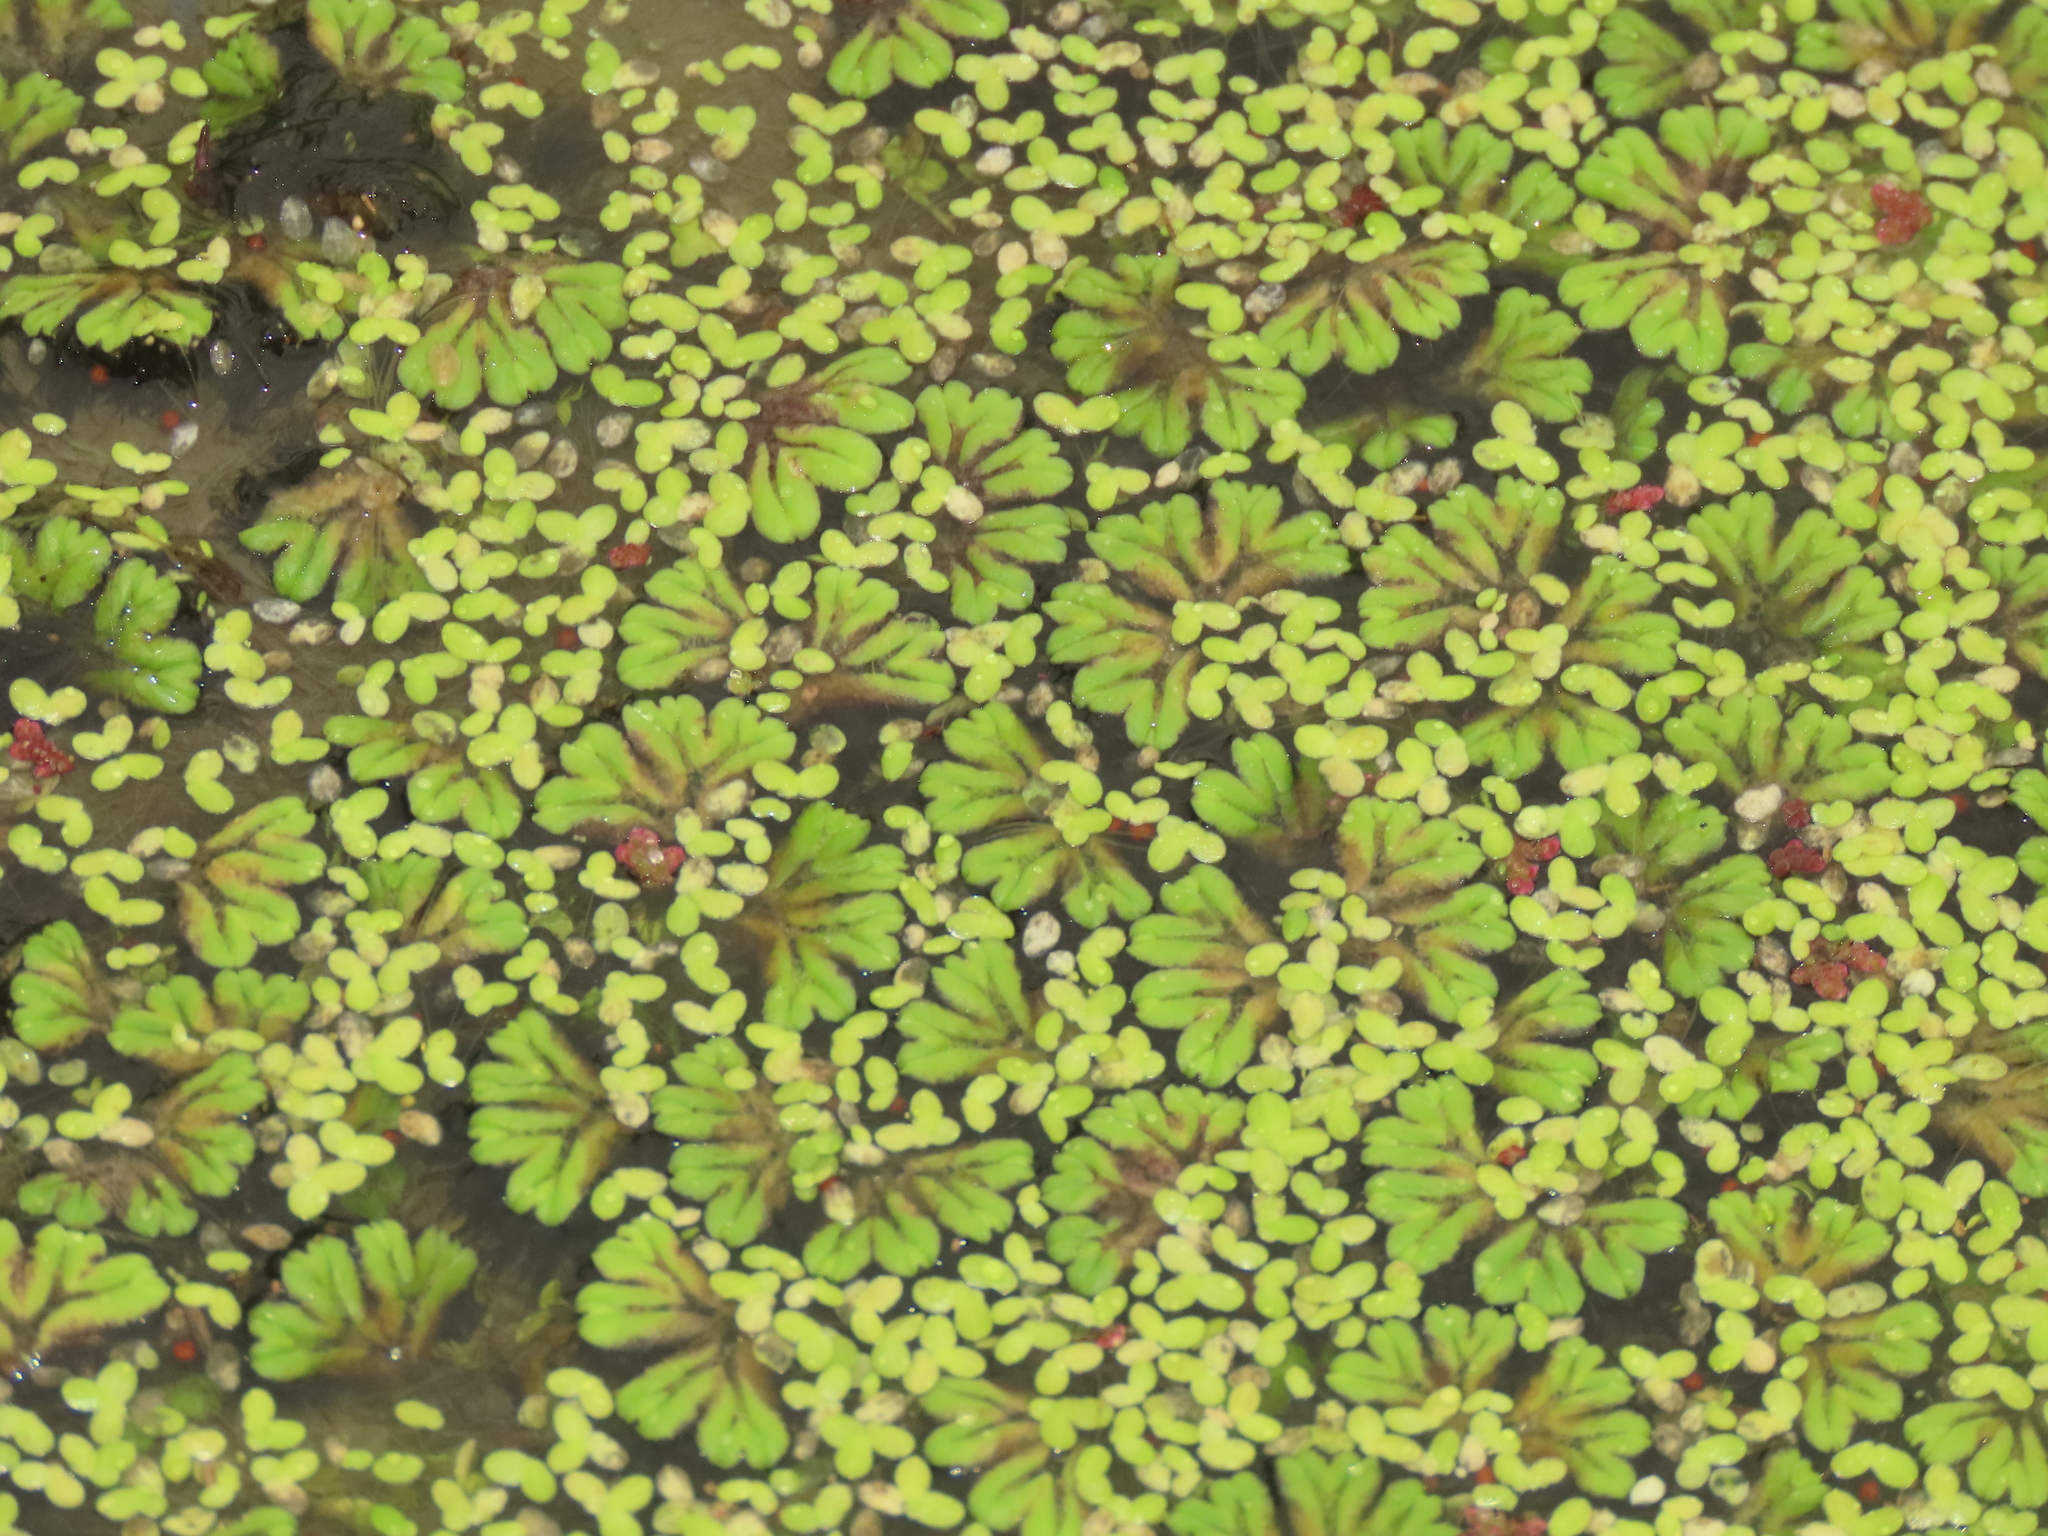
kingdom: Plantae
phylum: Marchantiophyta
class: Marchantiopsida
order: Marchantiales
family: Ricciaceae
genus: Ricciocarpos
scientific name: Ricciocarpos natans
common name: Purple-fringed liverwort
